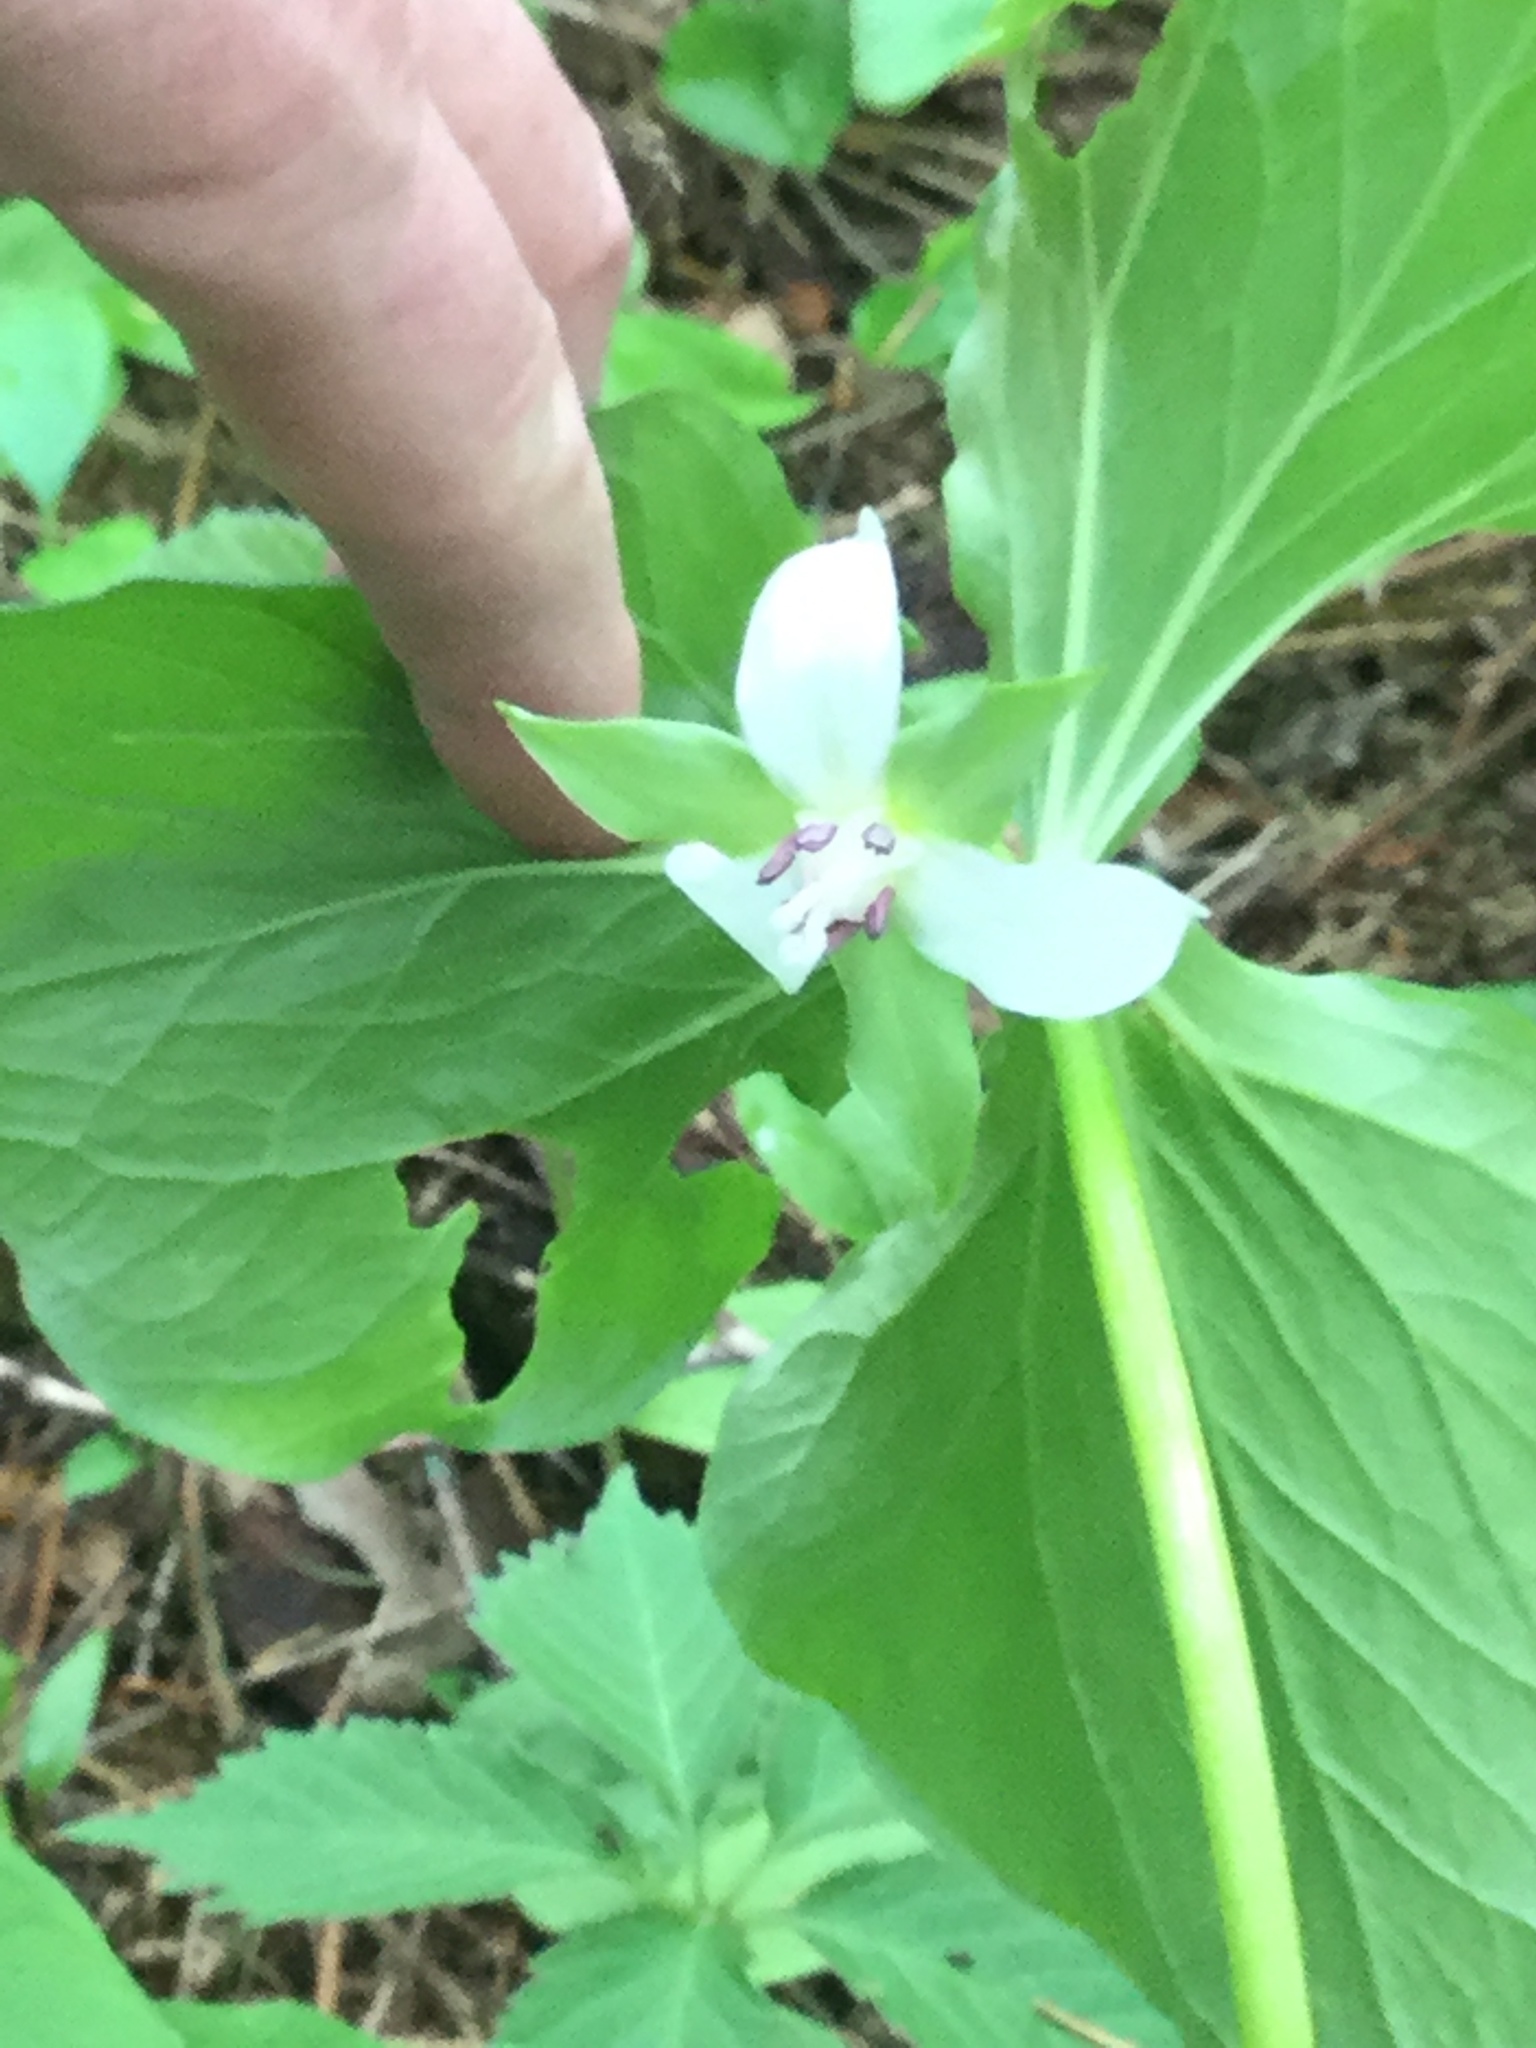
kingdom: Plantae
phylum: Tracheophyta
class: Liliopsida
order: Liliales
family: Melanthiaceae
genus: Trillium
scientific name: Trillium cernuum
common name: Nodding trillium
